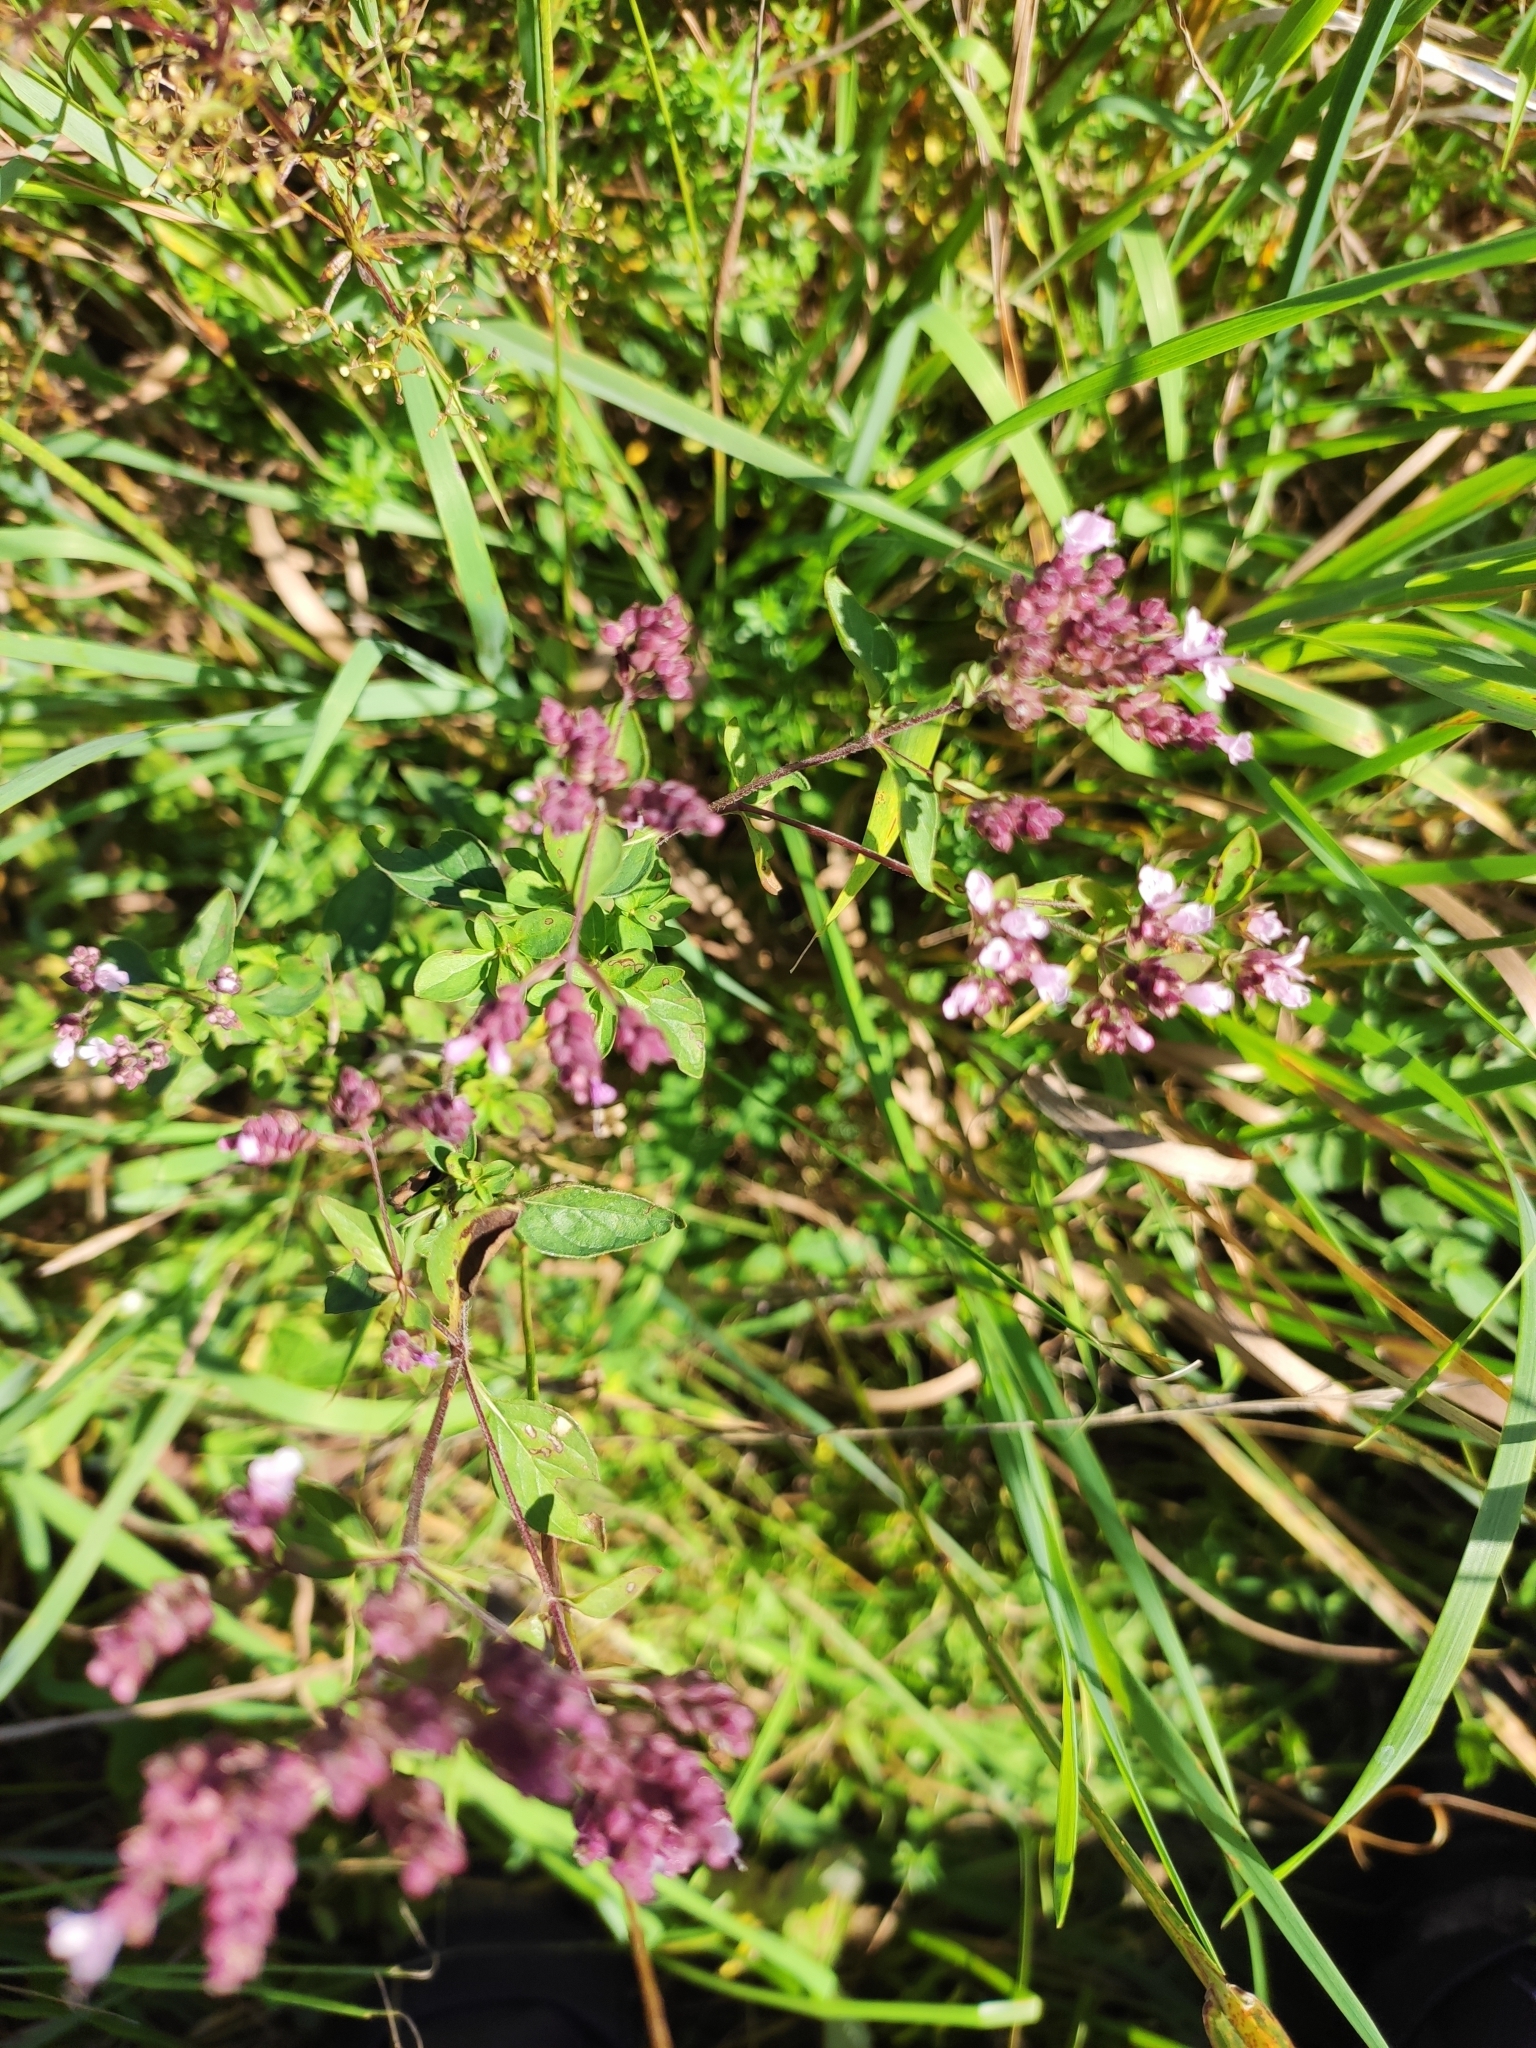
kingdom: Plantae
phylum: Tracheophyta
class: Magnoliopsida
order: Lamiales
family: Lamiaceae
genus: Origanum
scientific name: Origanum vulgare
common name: Wild marjoram
